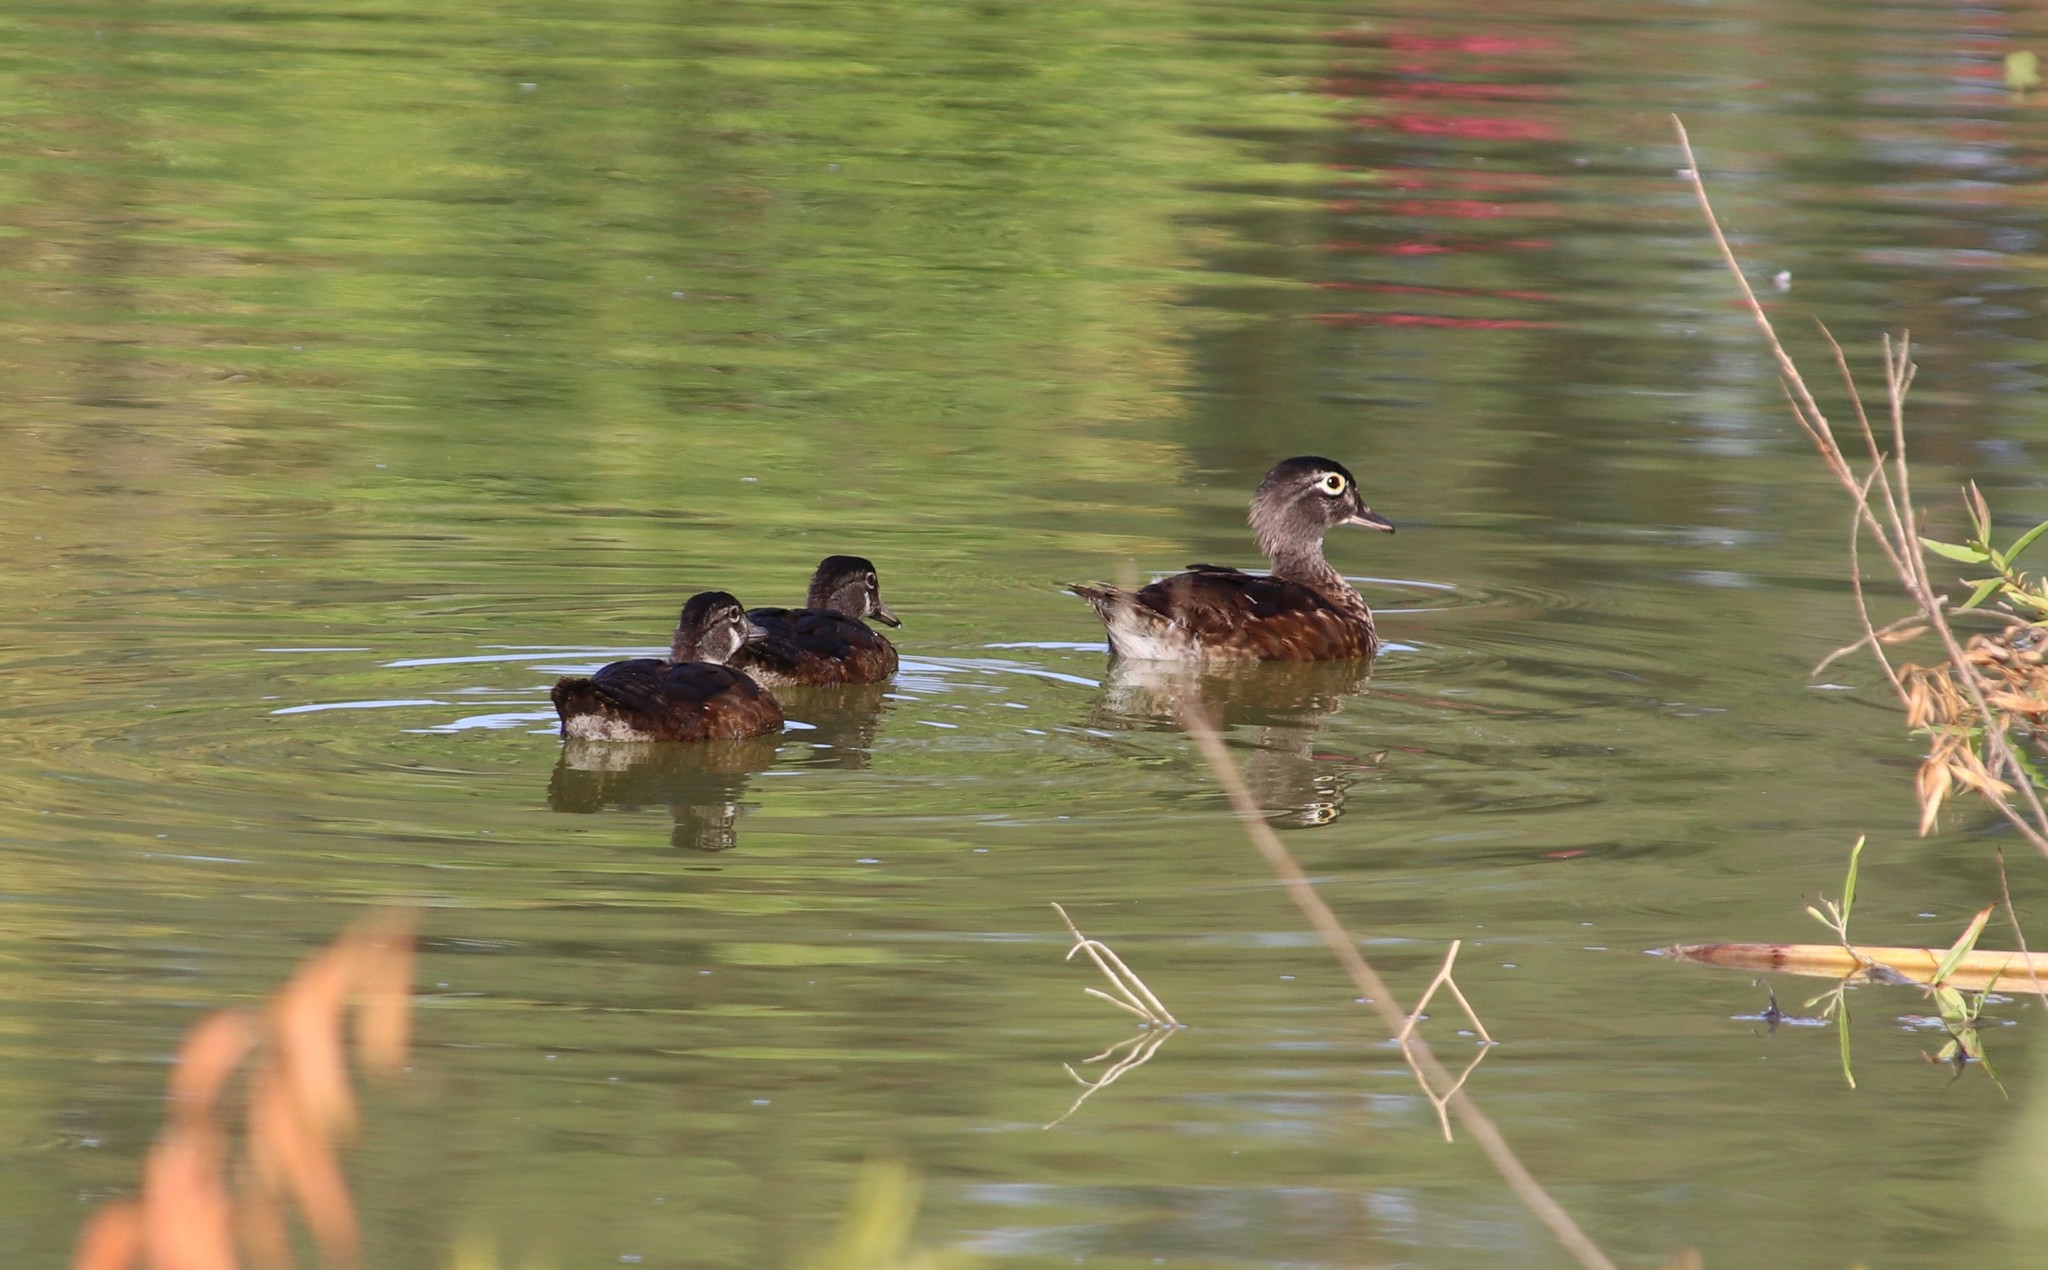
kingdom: Animalia
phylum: Chordata
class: Aves
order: Anseriformes
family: Anatidae
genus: Aix
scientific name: Aix sponsa
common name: Wood duck
